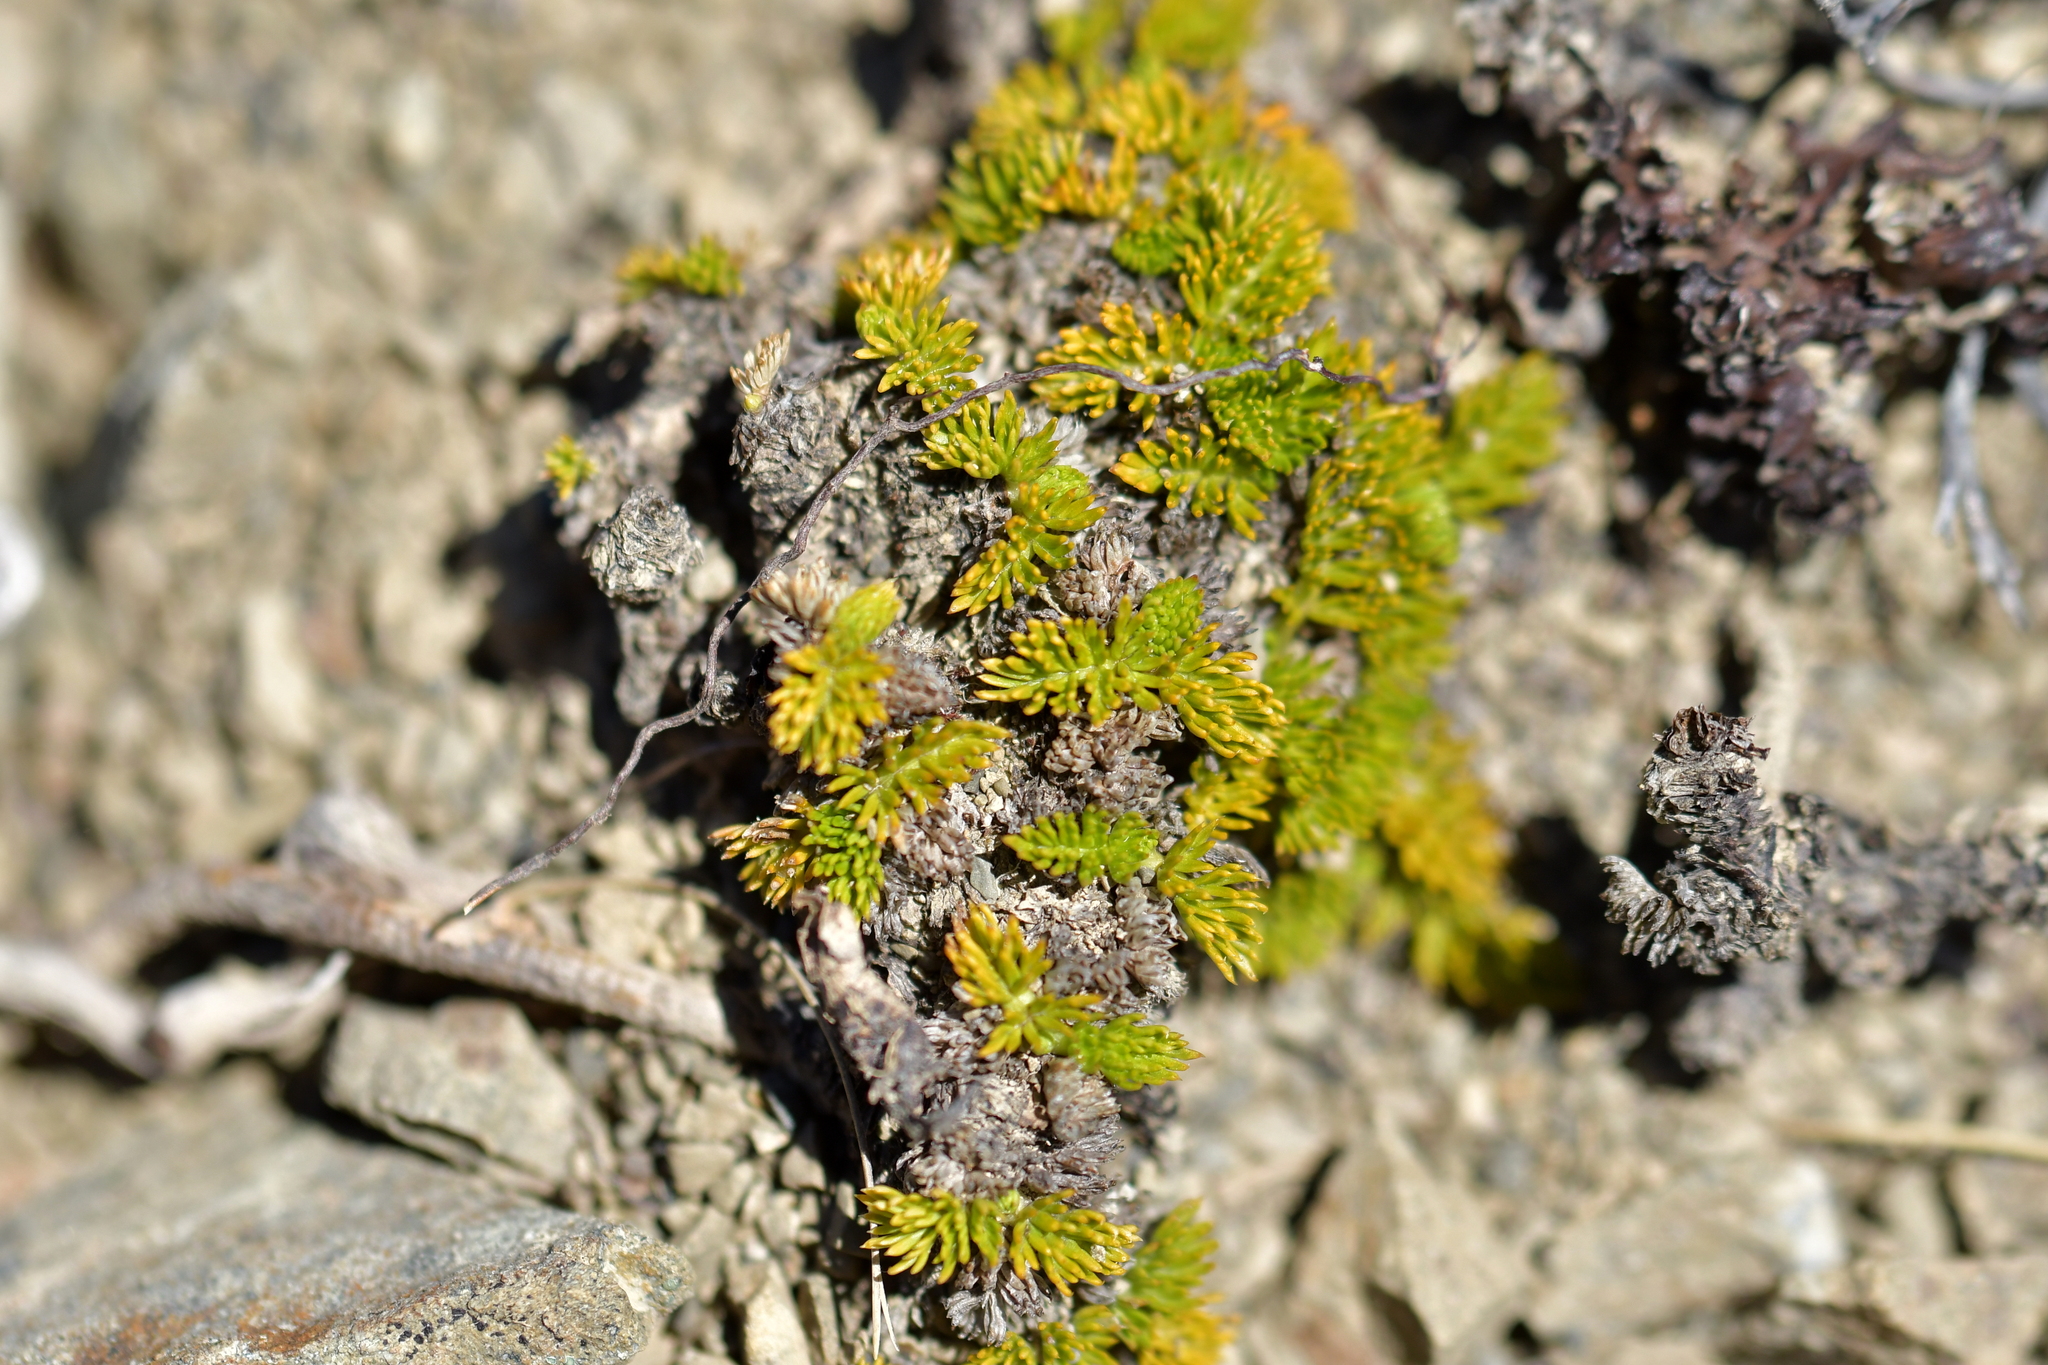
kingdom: Plantae
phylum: Tracheophyta
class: Magnoliopsida
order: Apiales
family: Apiaceae
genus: Anisotome
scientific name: Anisotome imbricata
